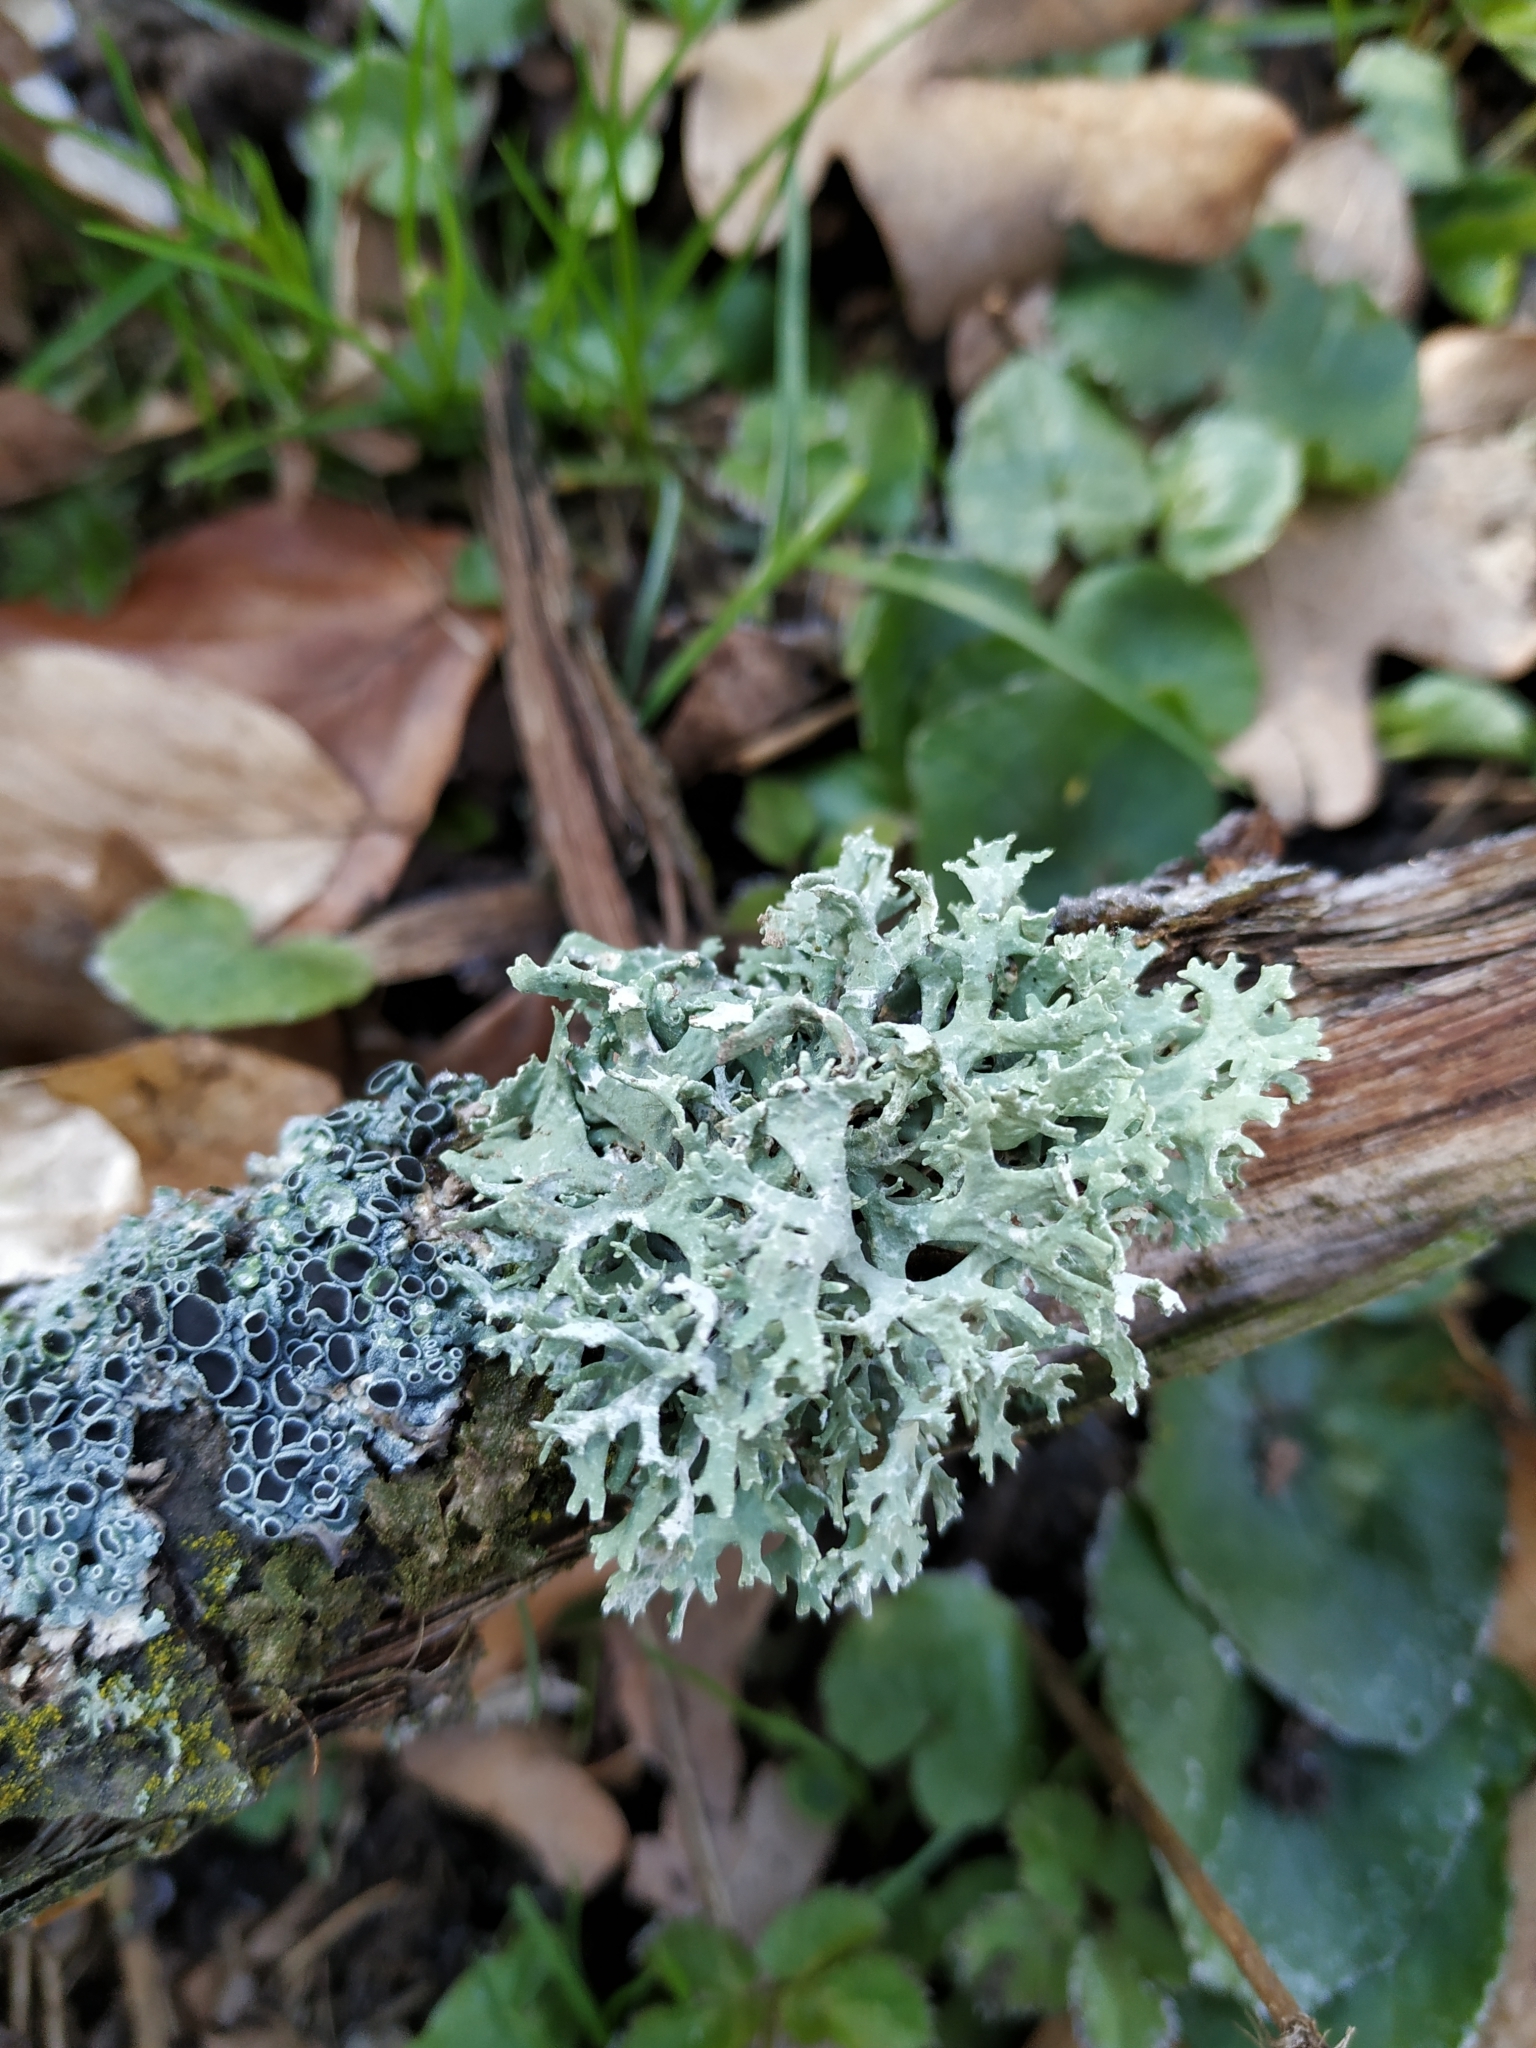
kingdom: Fungi
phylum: Ascomycota
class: Lecanoromycetes
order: Lecanorales
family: Parmeliaceae
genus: Evernia
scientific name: Evernia prunastri
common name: Oak moss
